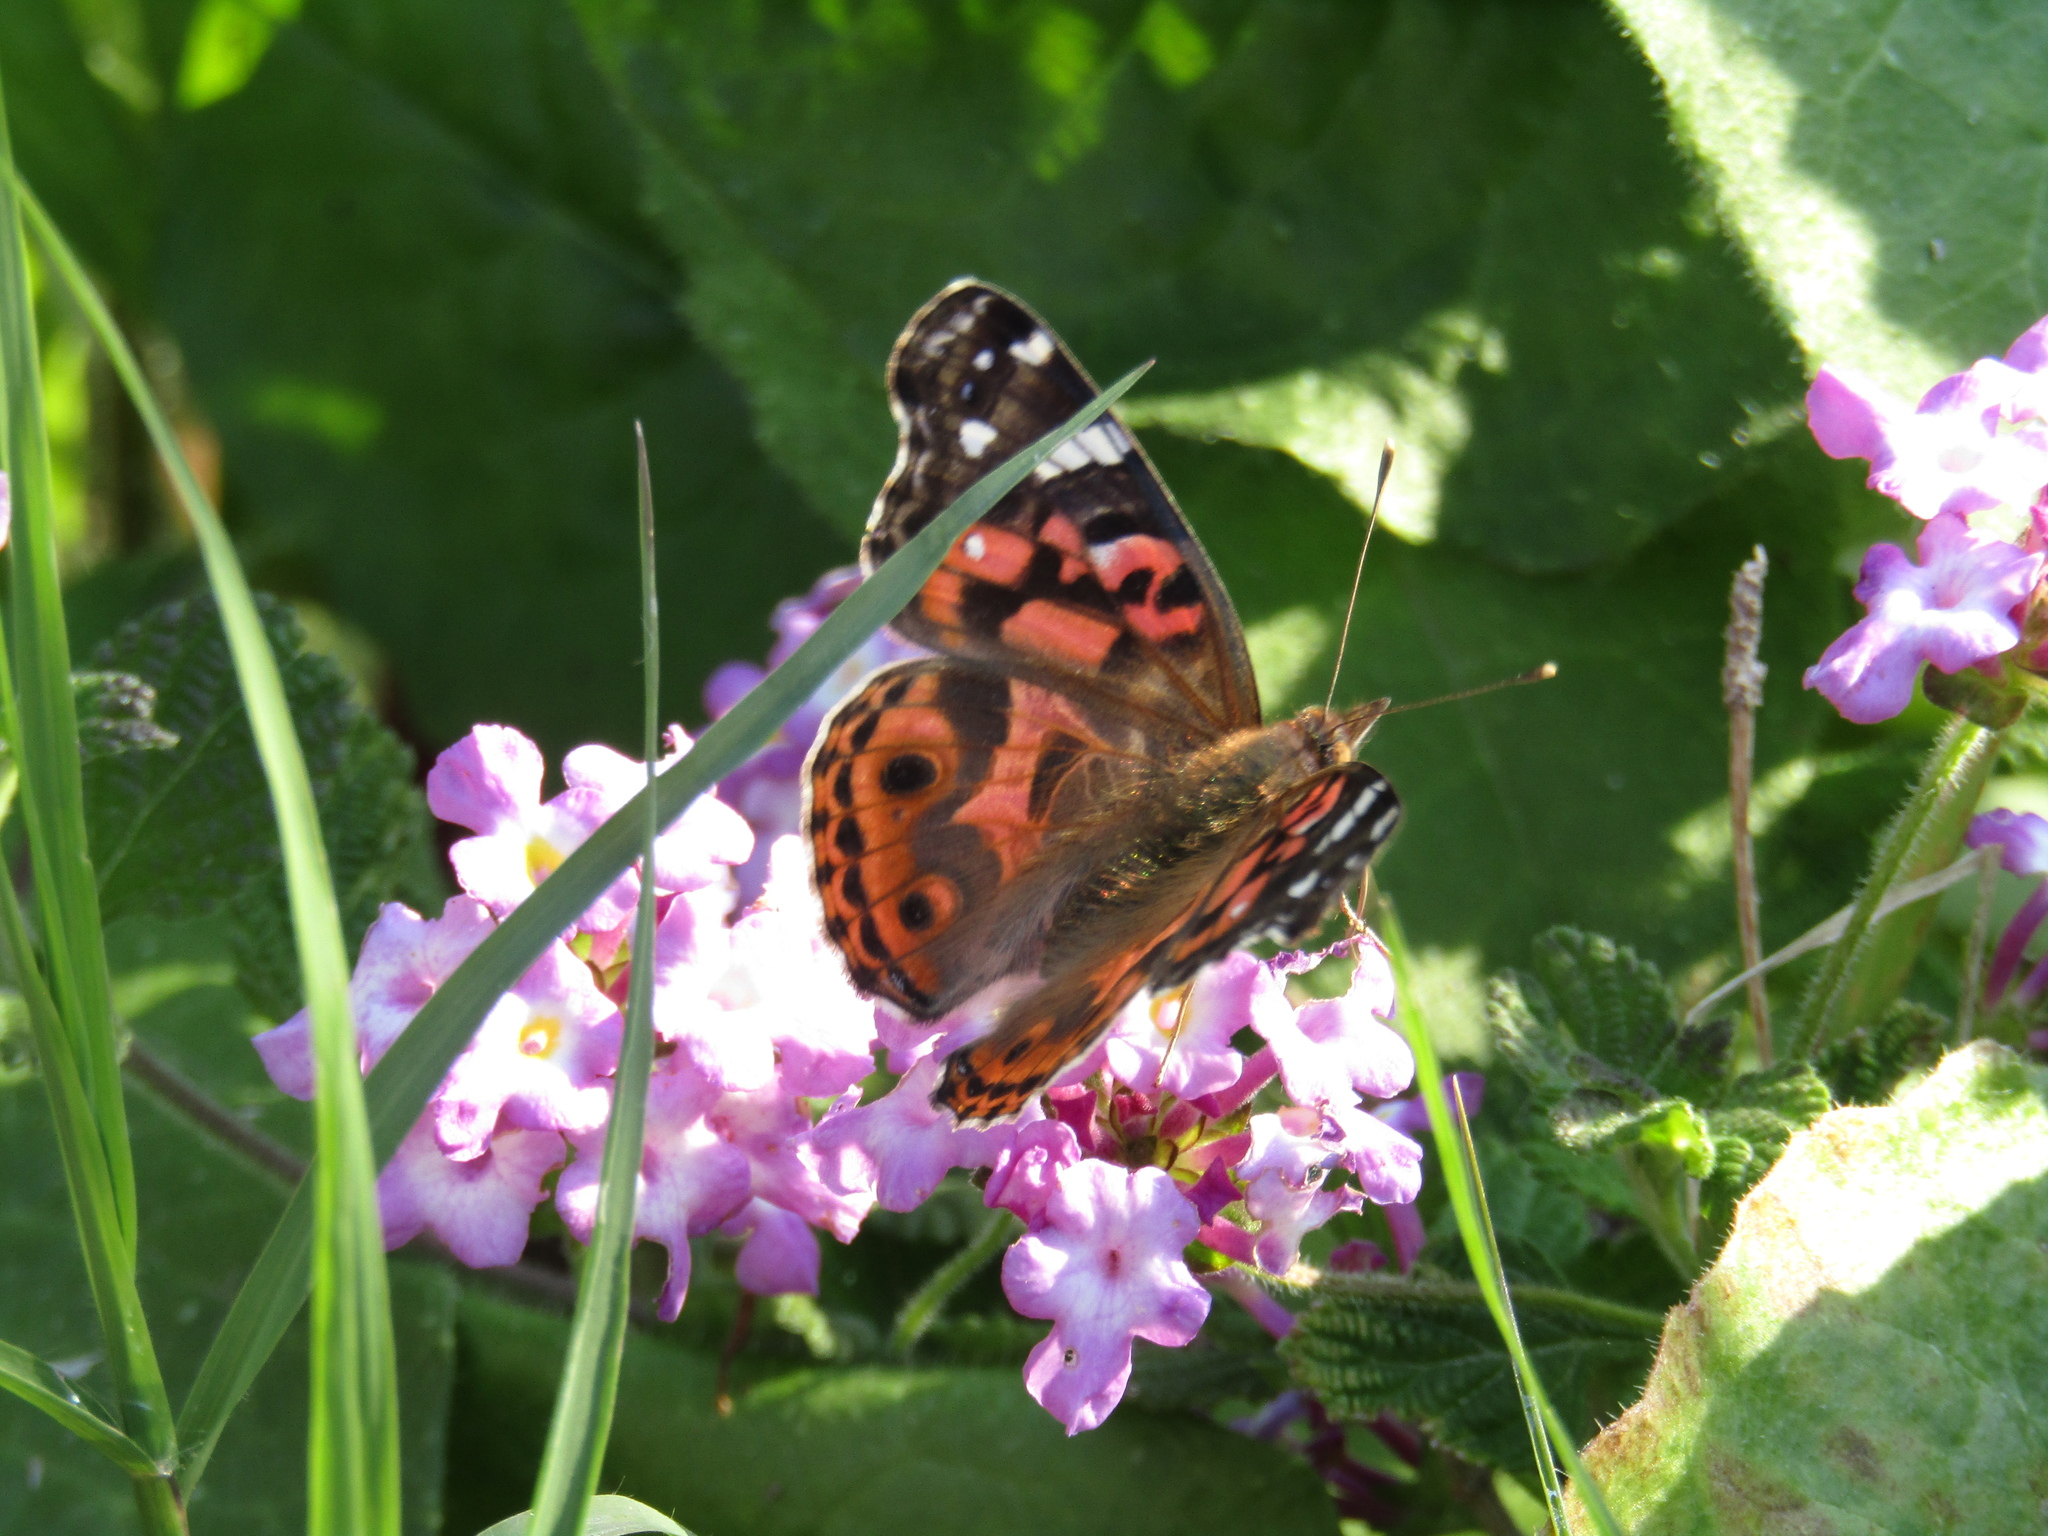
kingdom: Animalia
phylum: Arthropoda
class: Insecta
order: Lepidoptera
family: Nymphalidae
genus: Vanessa
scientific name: Vanessa braziliensis
